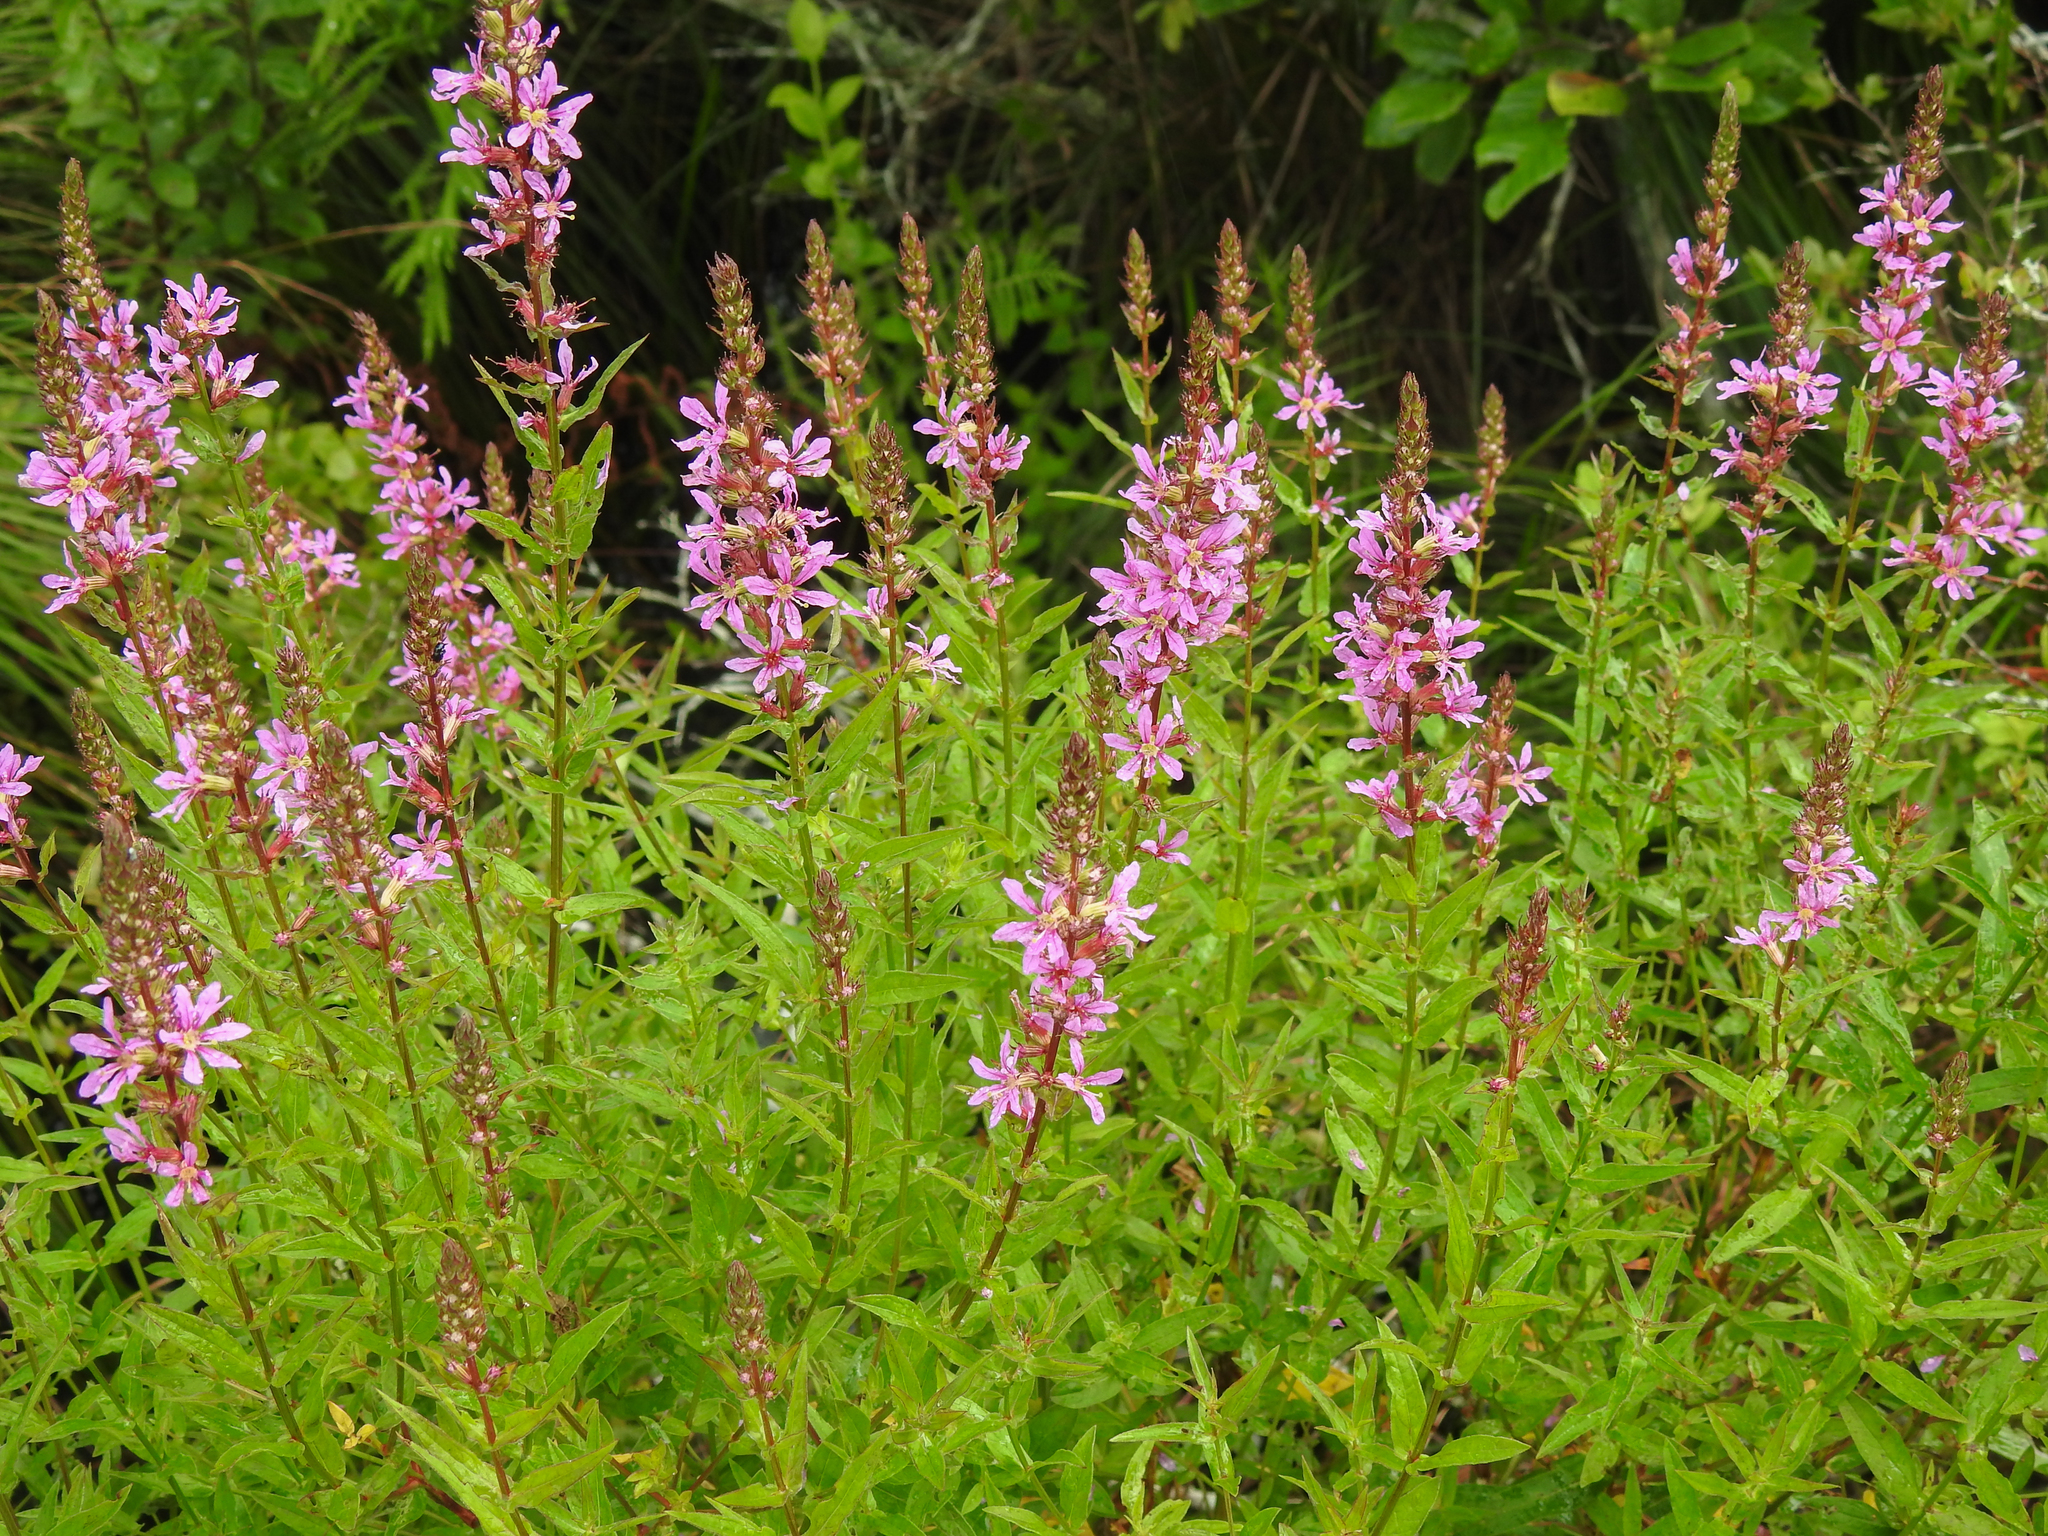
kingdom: Plantae
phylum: Tracheophyta
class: Magnoliopsida
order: Myrtales
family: Lythraceae
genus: Lythrum
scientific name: Lythrum salicaria
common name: Purple loosestrife
